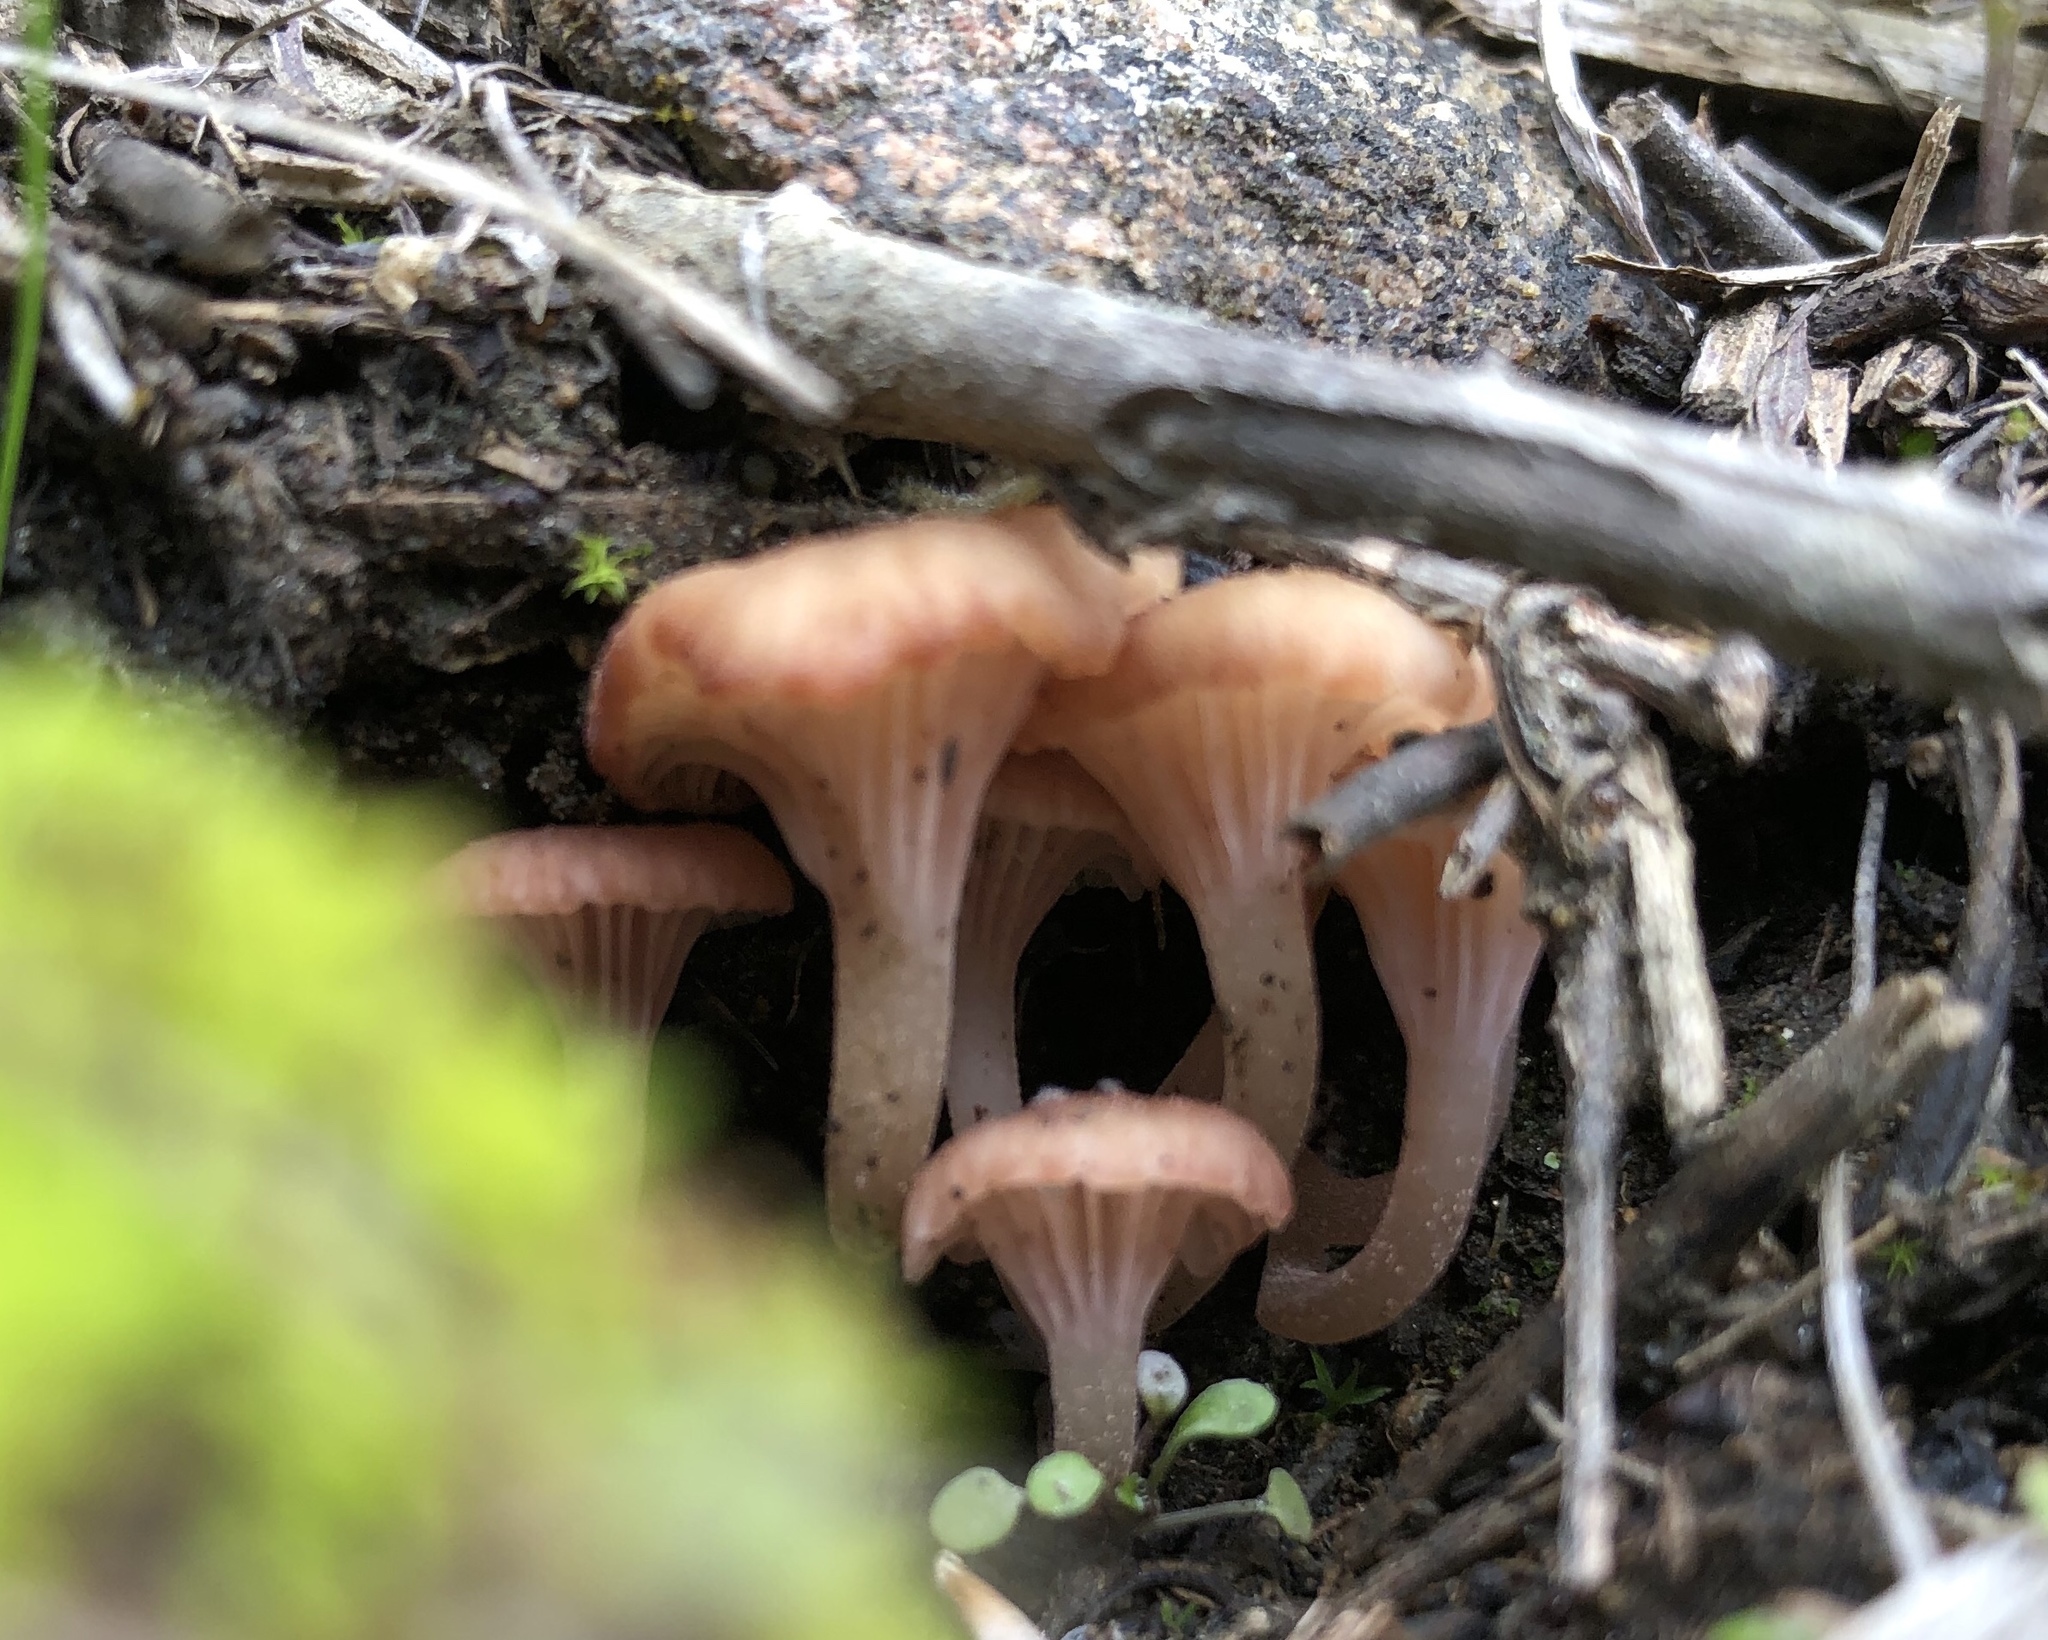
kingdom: Fungi
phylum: Basidiomycota
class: Agaricomycetes
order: Hymenochaetales
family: Rickenellaceae
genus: Contumyces
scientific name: Contumyces rosellus
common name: Rosy navel
